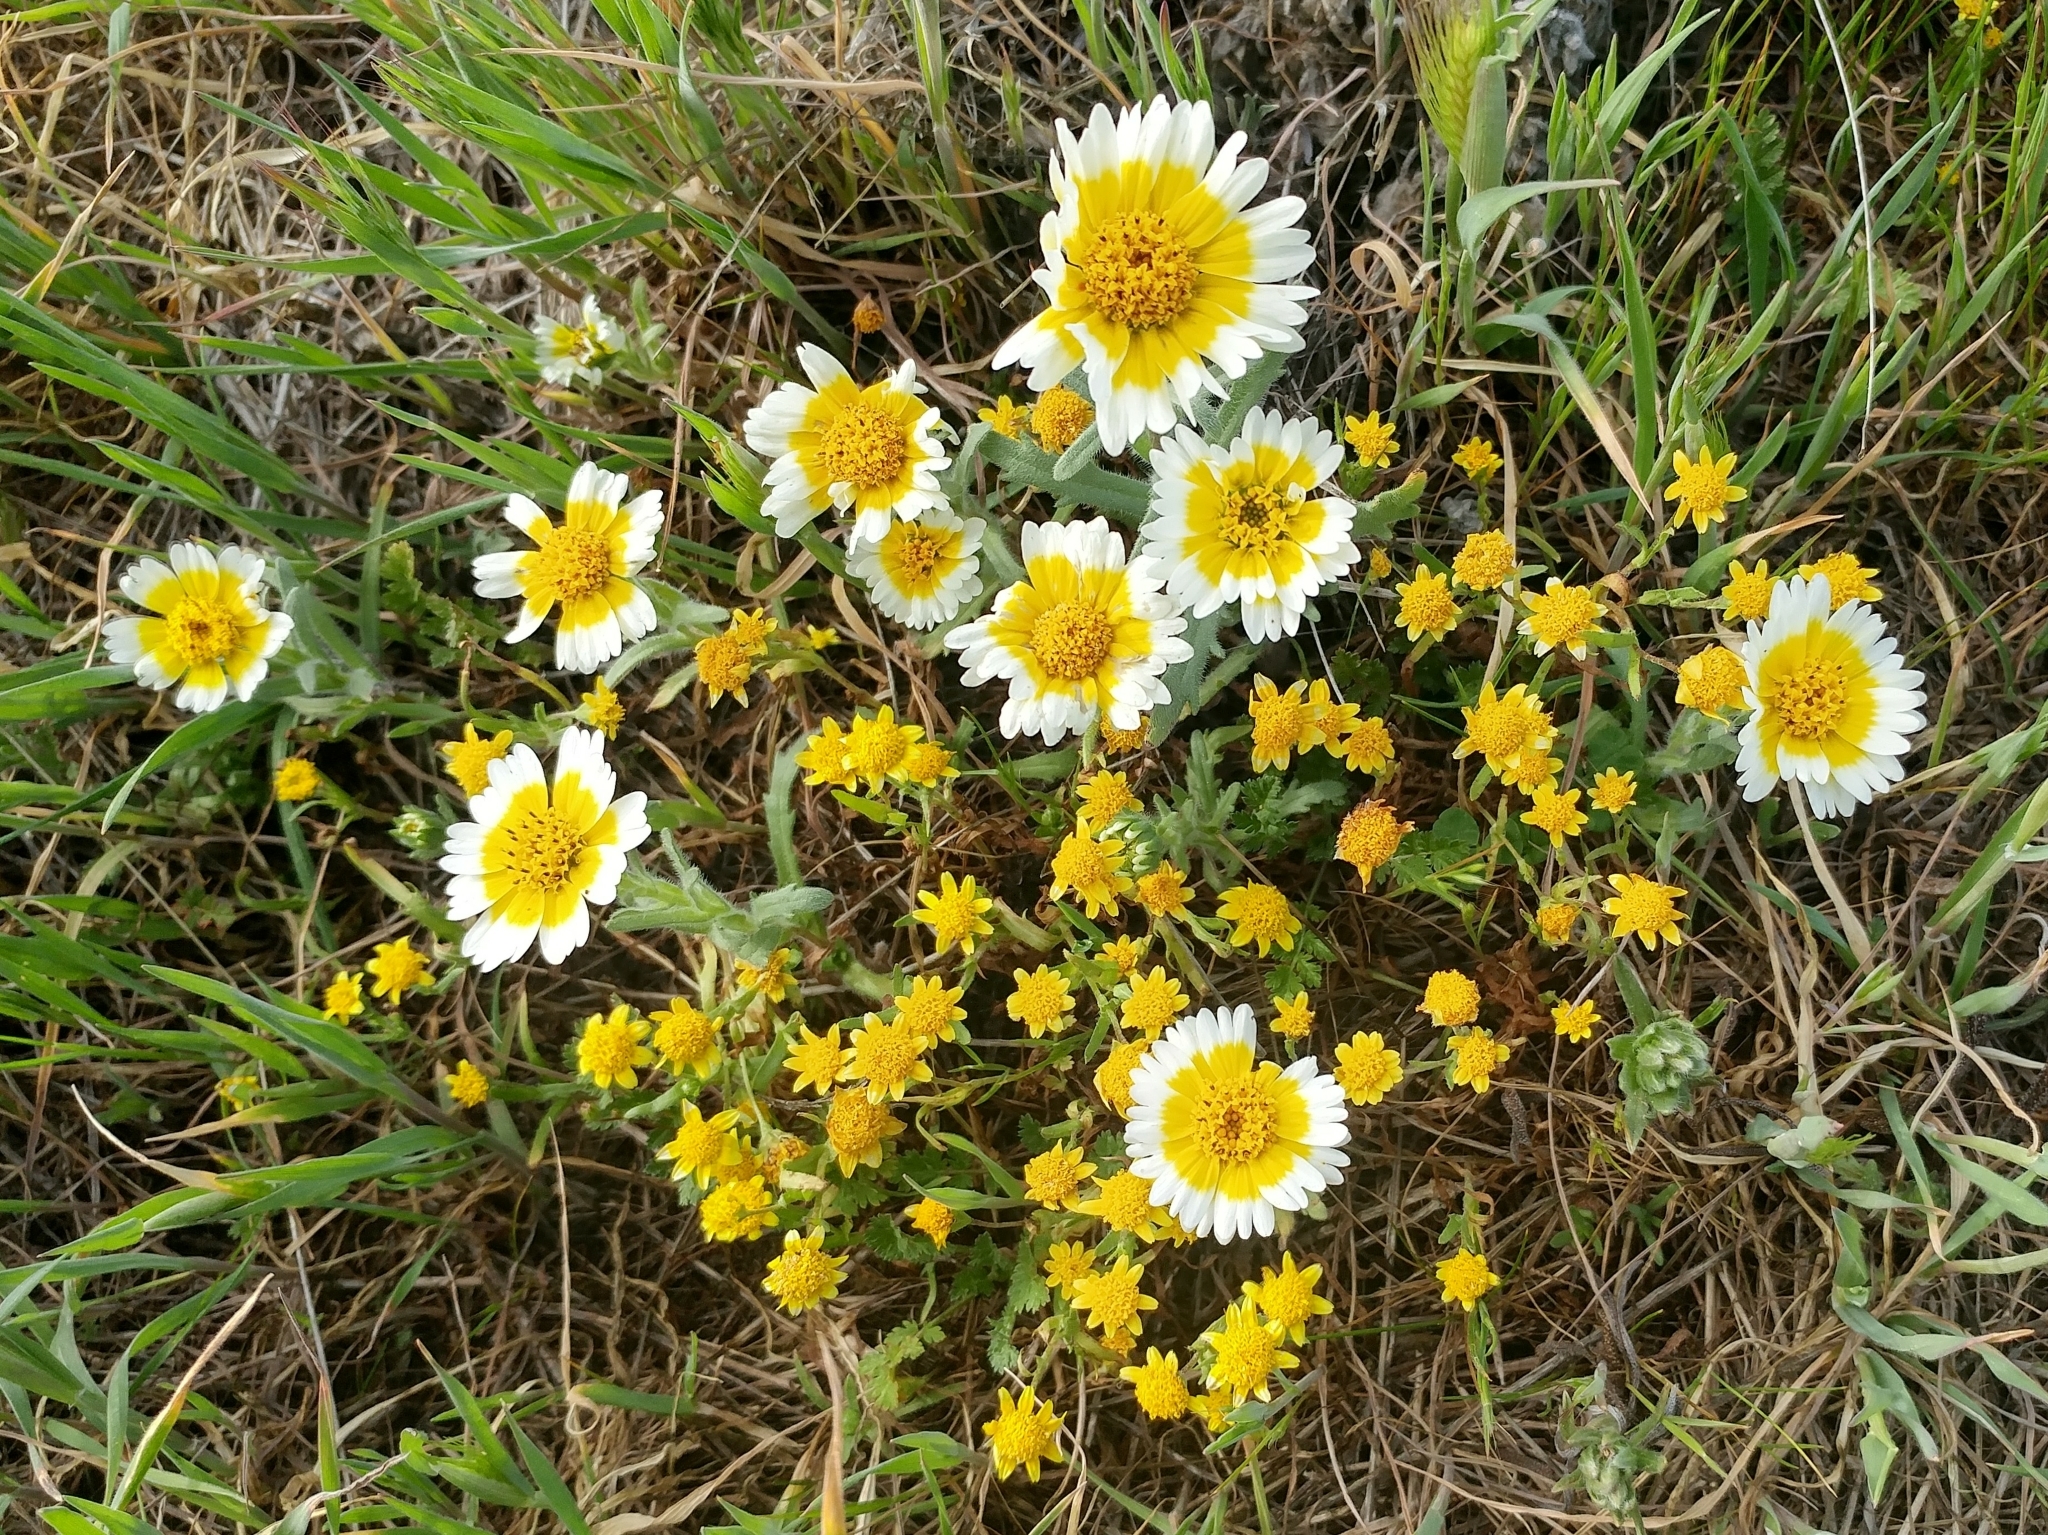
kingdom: Plantae
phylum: Tracheophyta
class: Magnoliopsida
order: Asterales
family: Asteraceae
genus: Layia
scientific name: Layia platyglossa
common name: Tidy-tips
